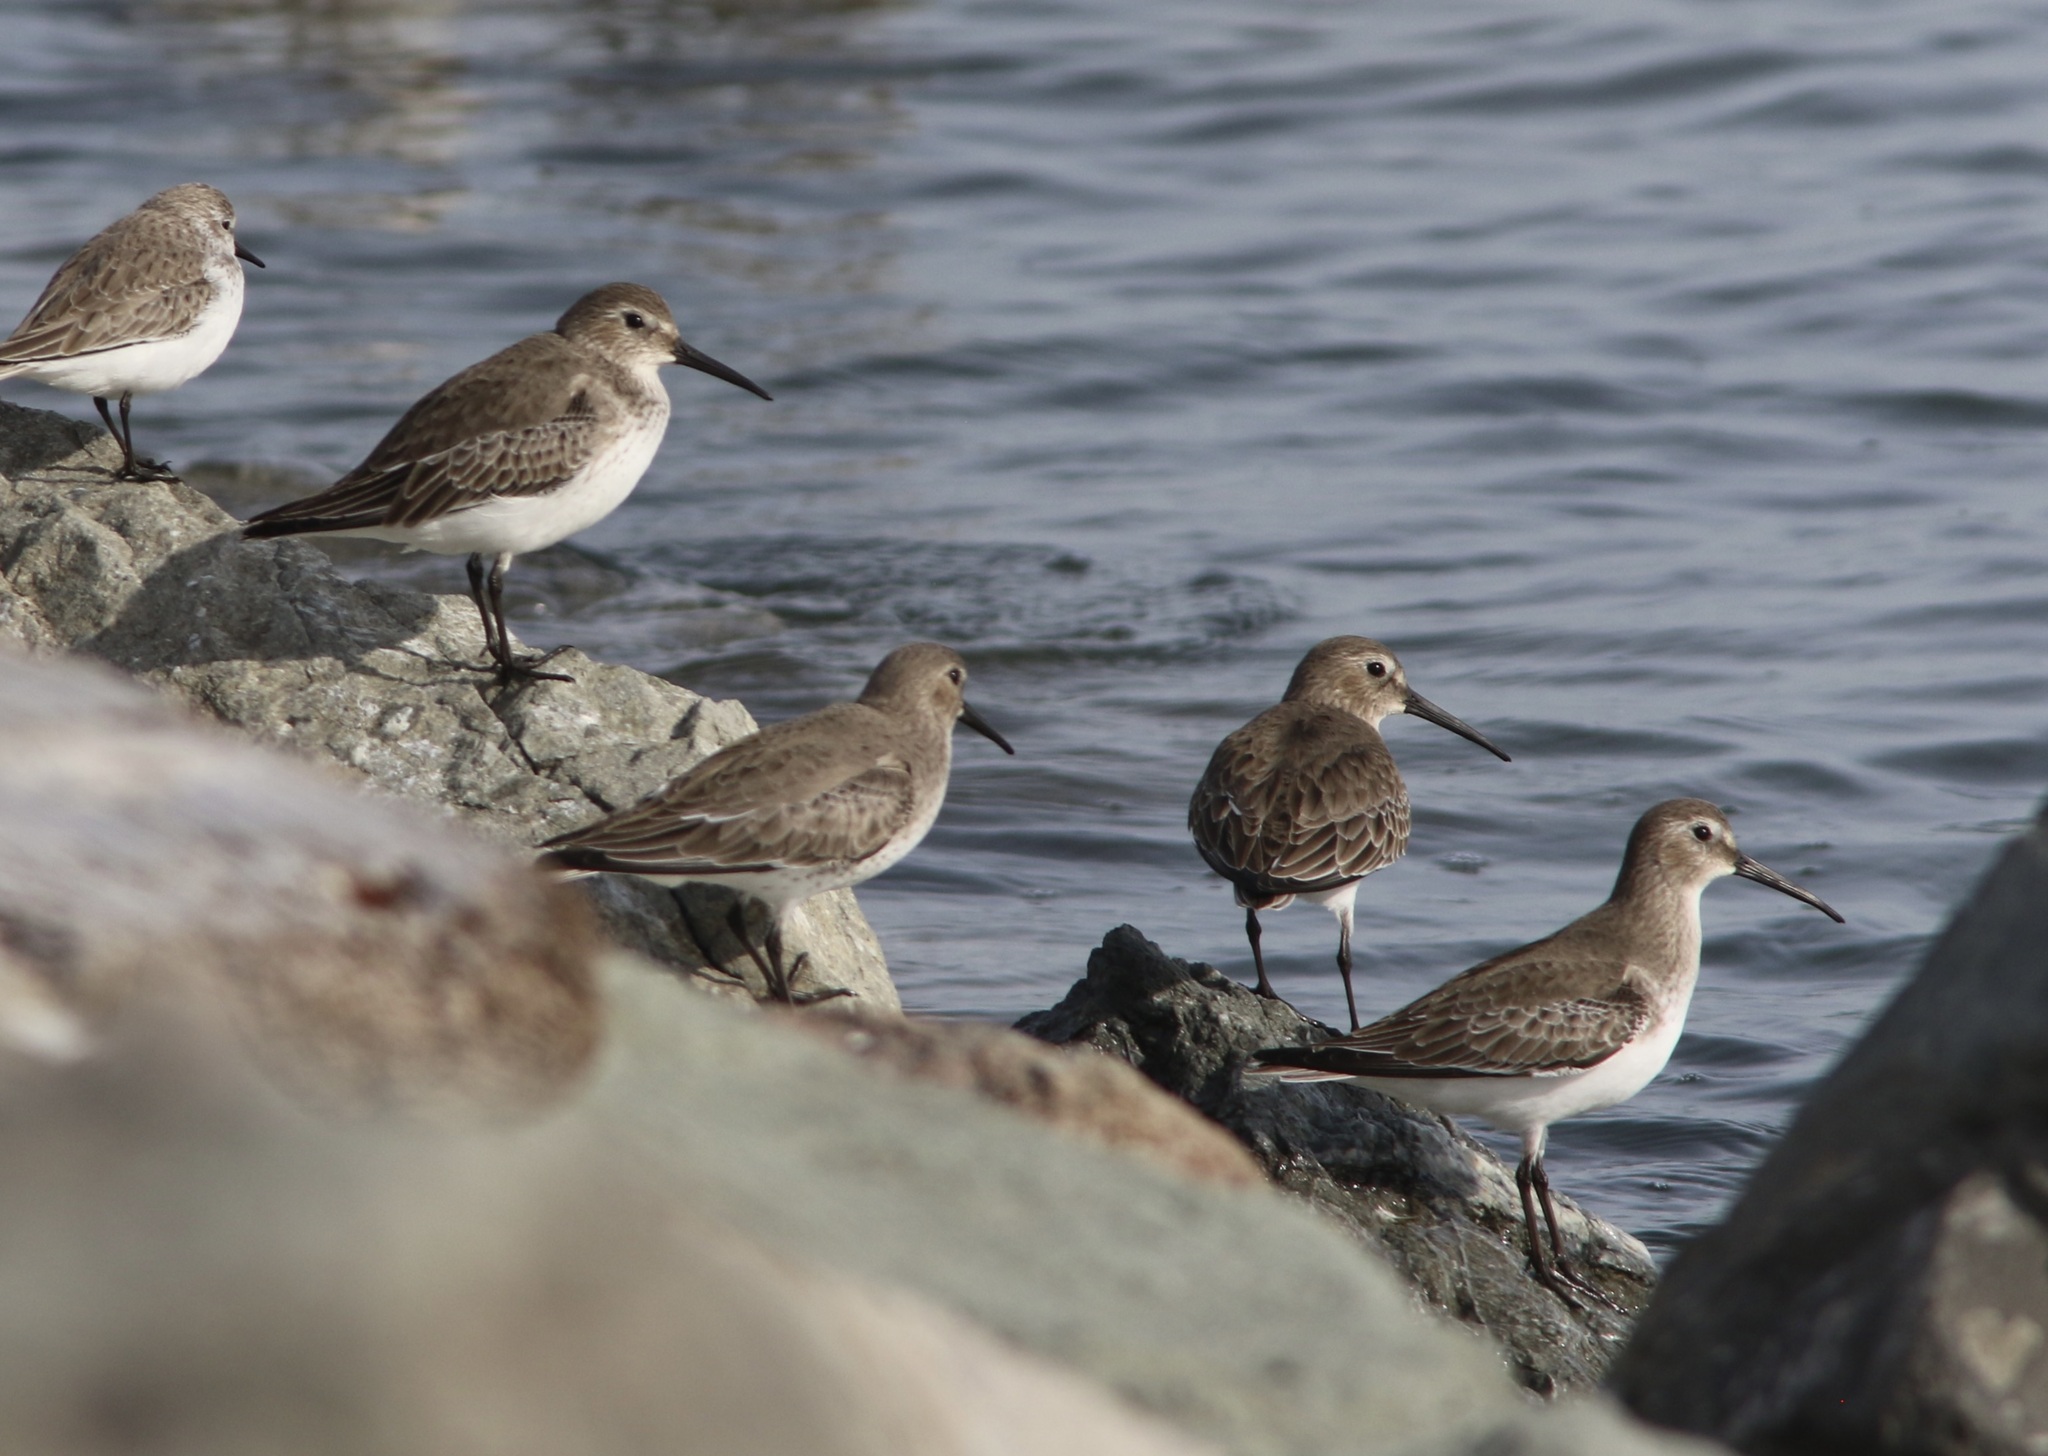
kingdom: Animalia
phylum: Chordata
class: Aves
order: Charadriiformes
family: Scolopacidae
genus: Calidris
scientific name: Calidris alpina
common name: Dunlin
